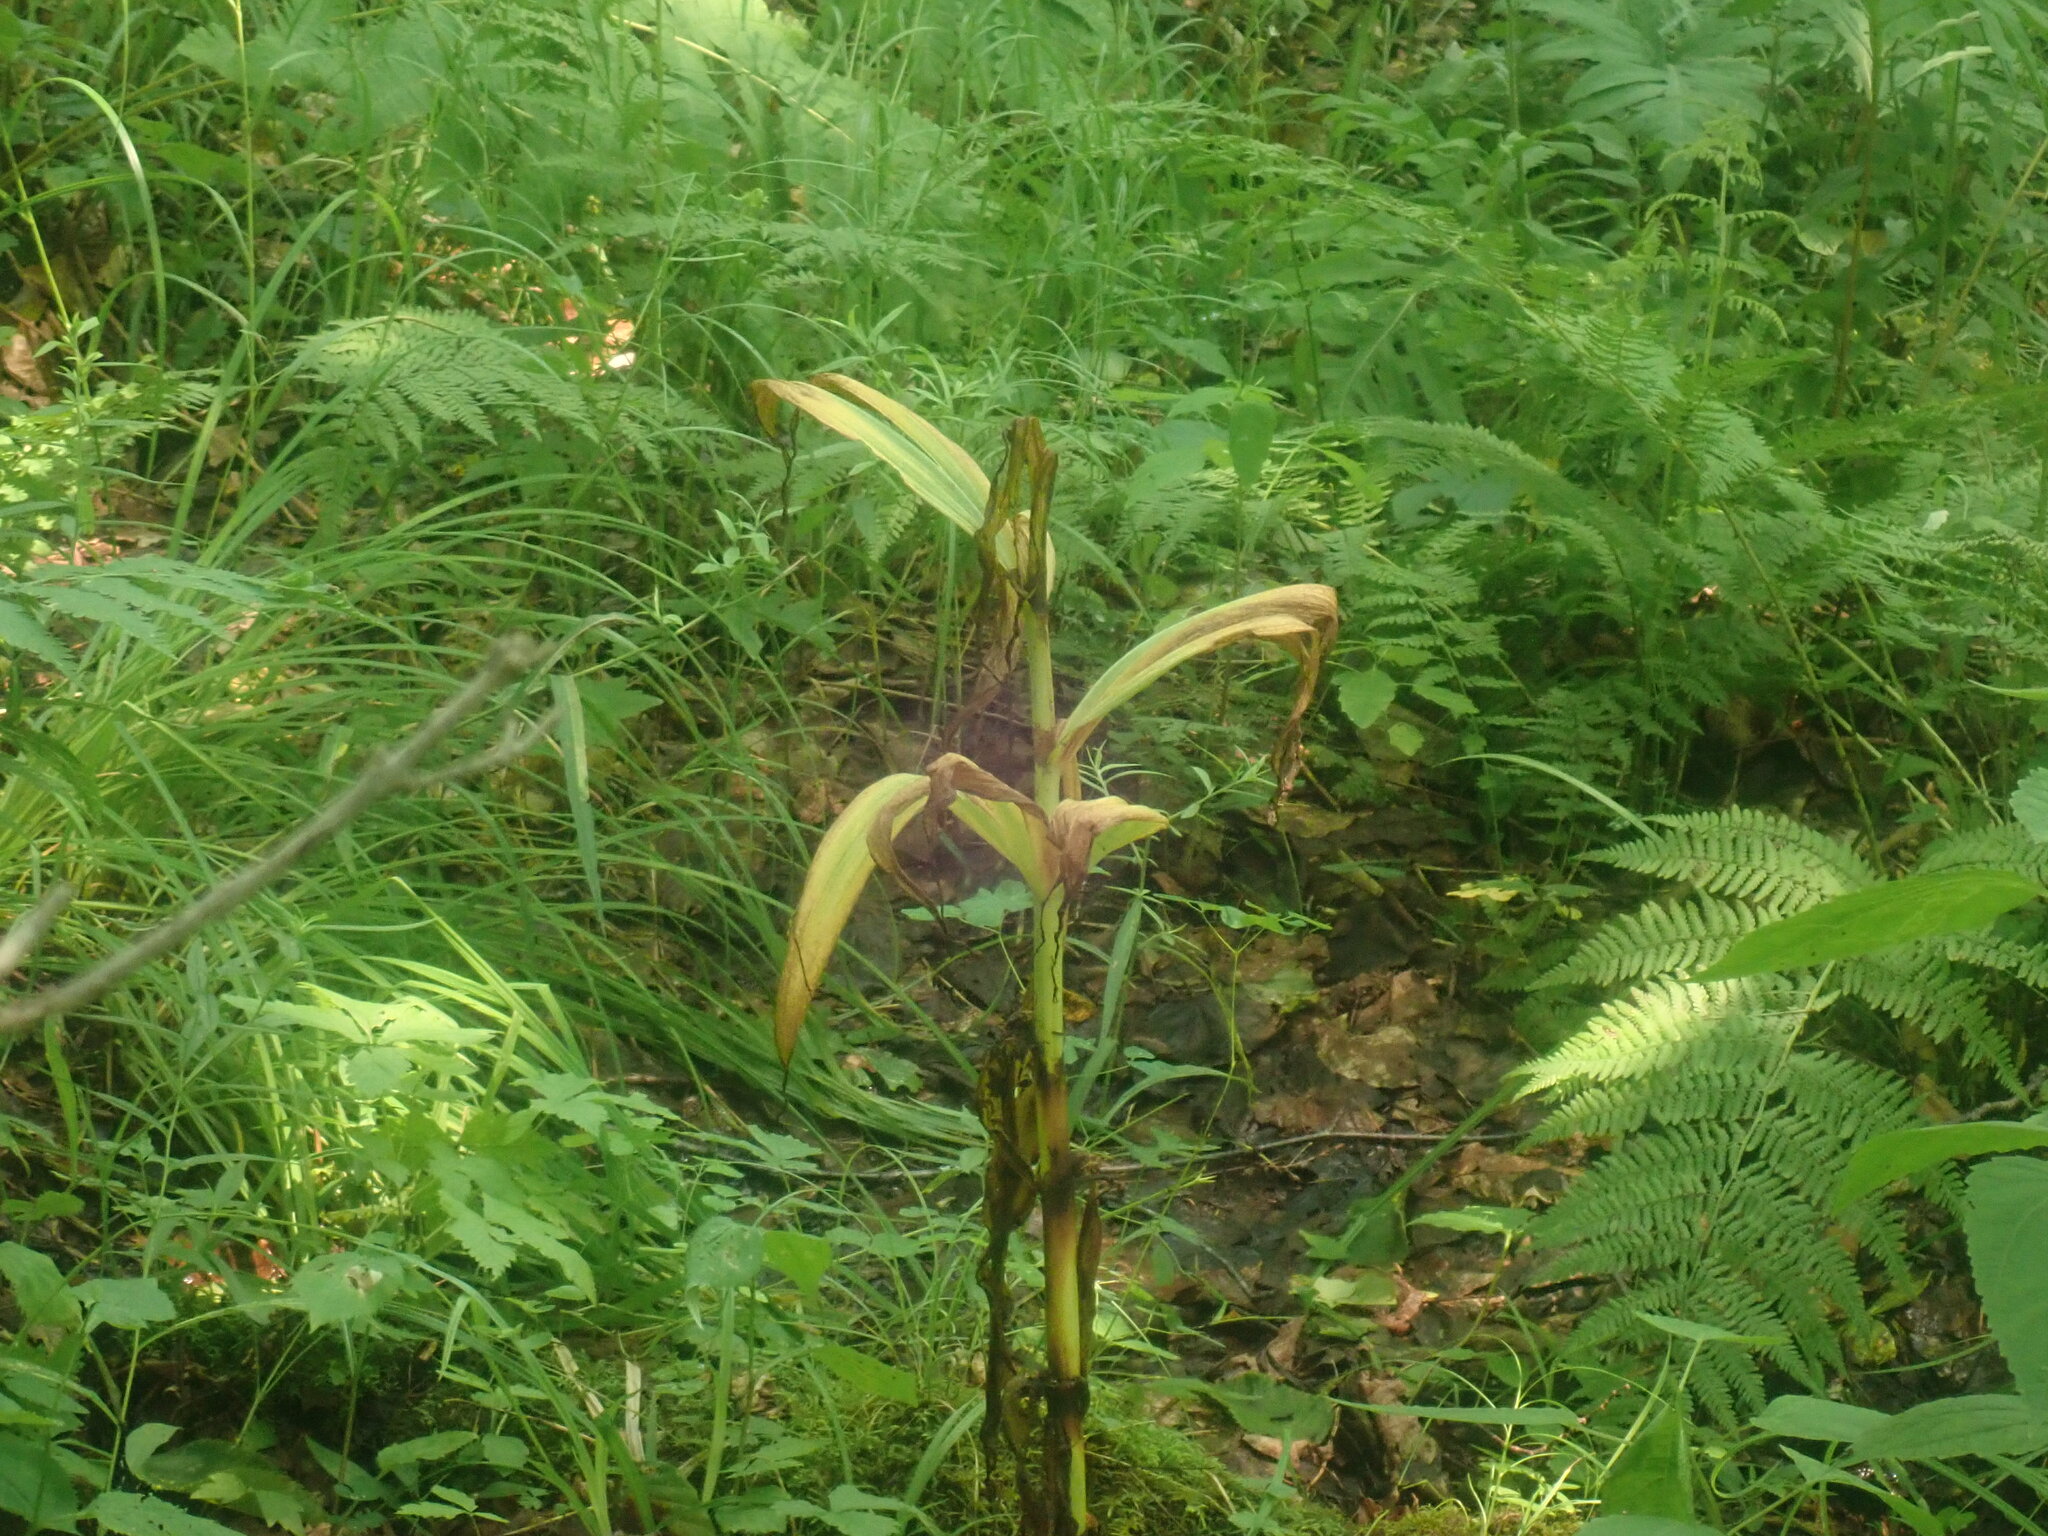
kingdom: Plantae
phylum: Tracheophyta
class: Liliopsida
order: Liliales
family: Melanthiaceae
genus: Veratrum
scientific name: Veratrum viride
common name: American false hellebore
